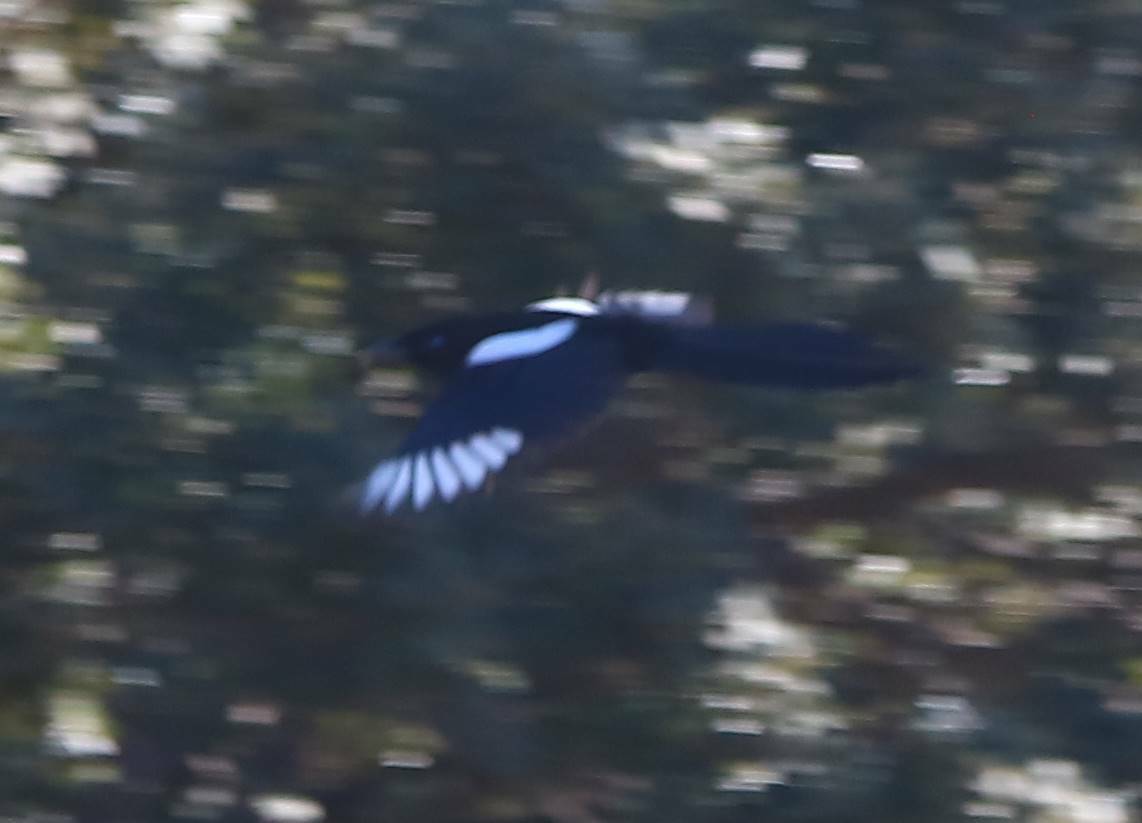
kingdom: Animalia
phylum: Chordata
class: Aves
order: Passeriformes
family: Corvidae
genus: Pica
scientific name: Pica mauritanica
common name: Maghreb magpie
